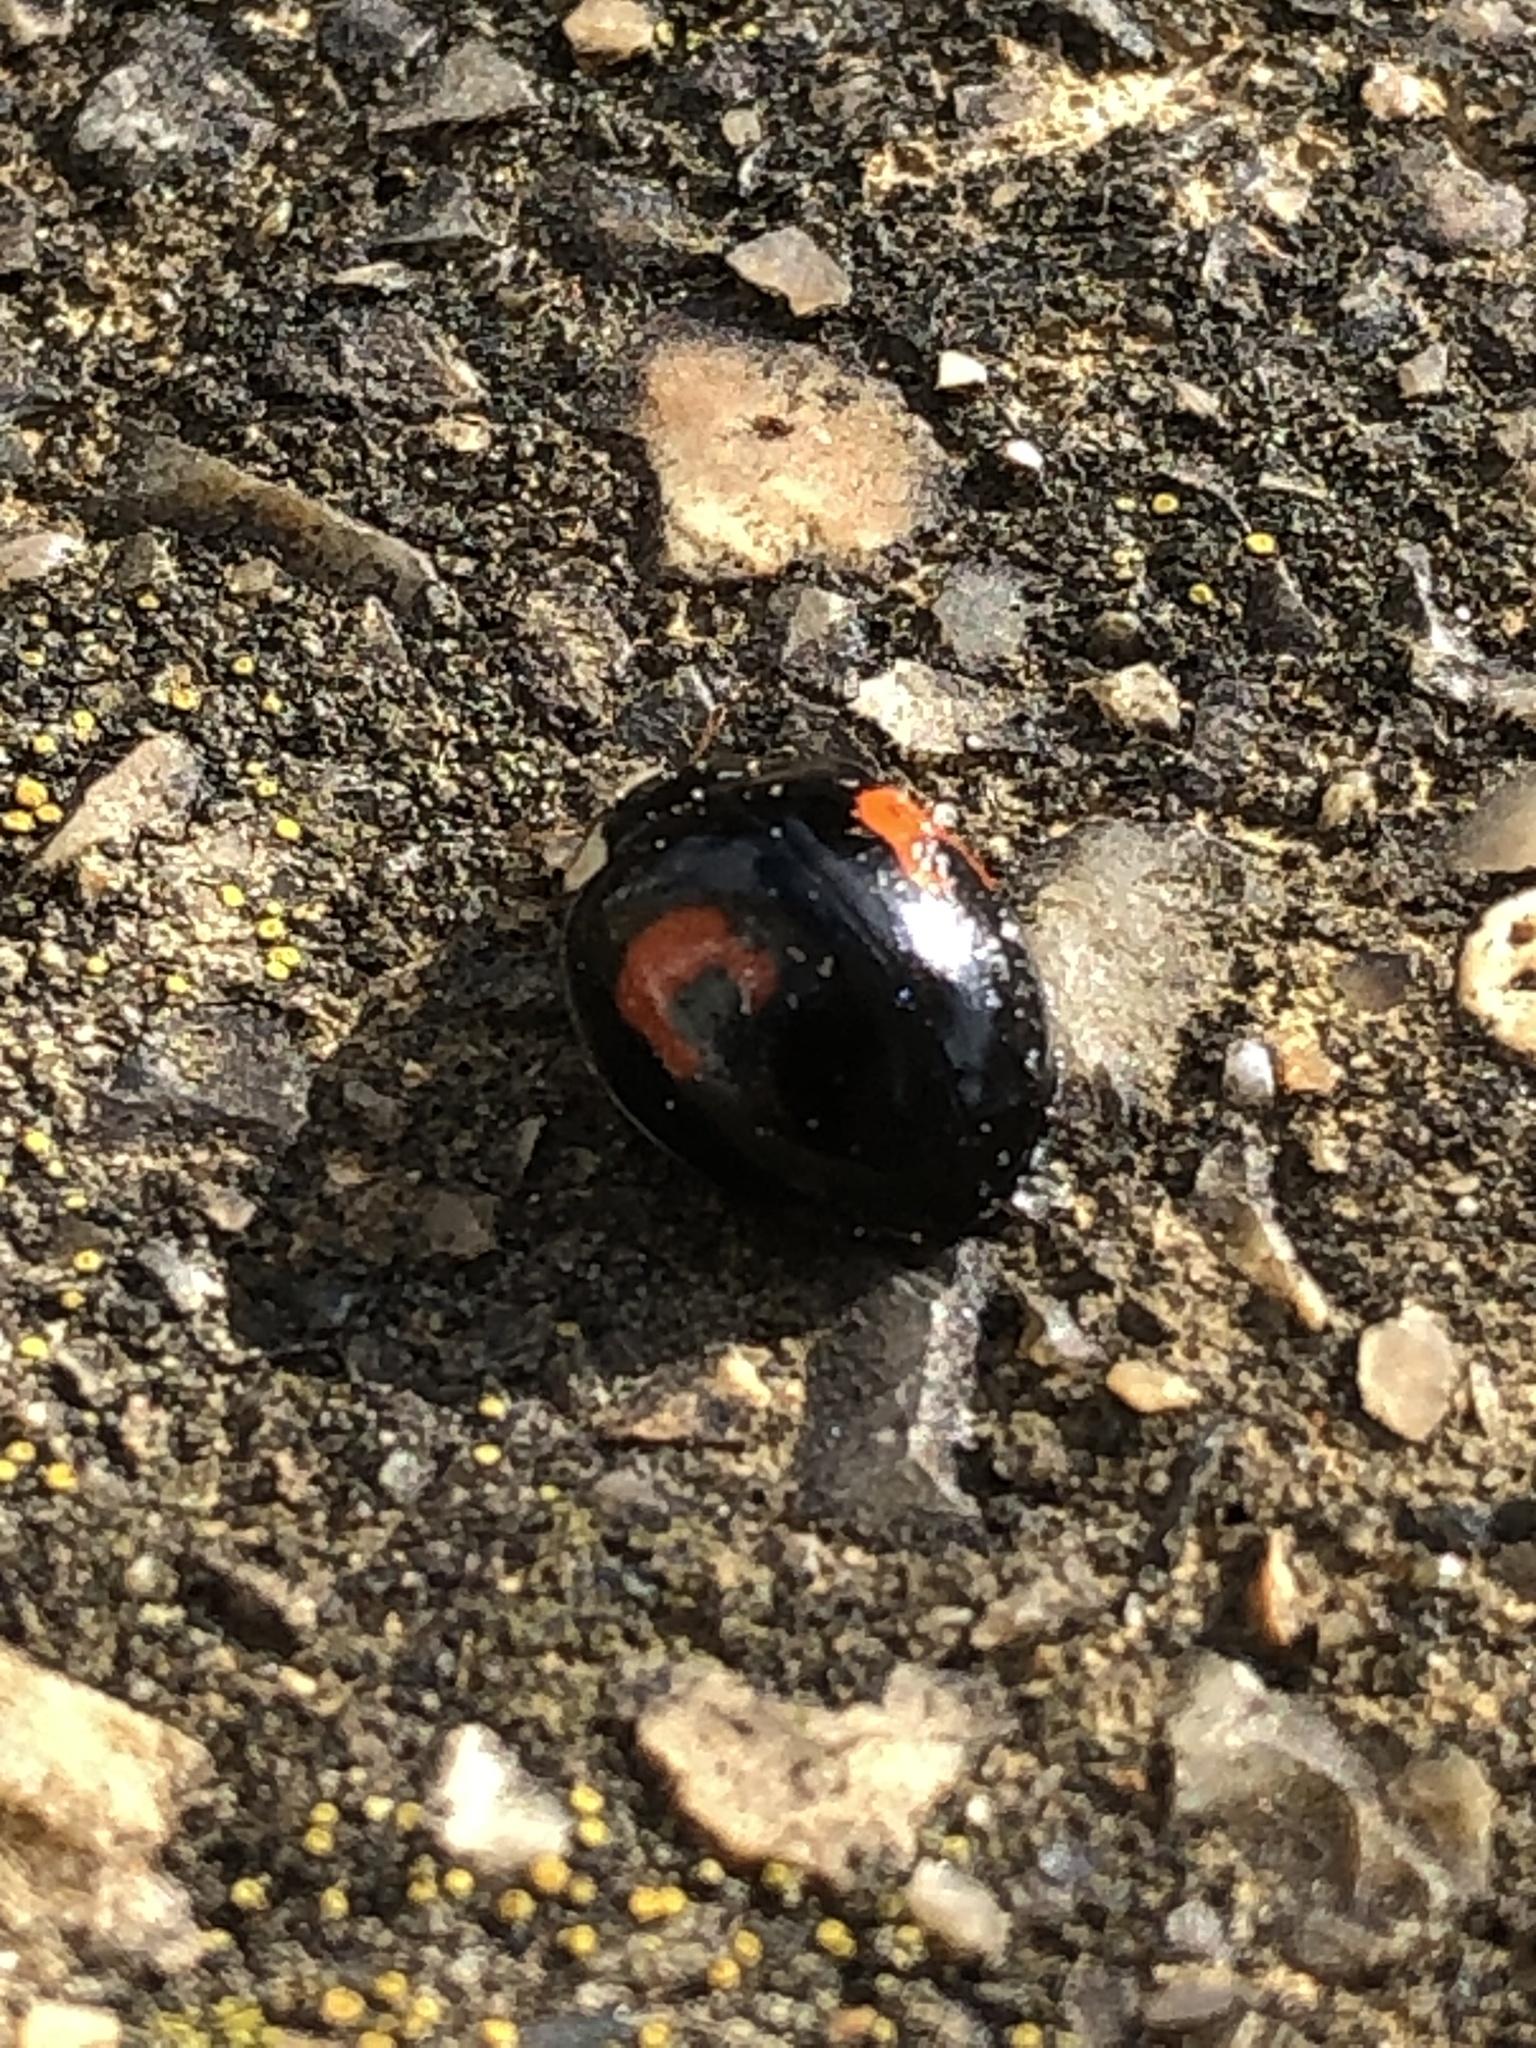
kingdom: Animalia
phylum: Arthropoda
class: Insecta
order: Coleoptera
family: Coccinellidae
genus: Harmonia
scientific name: Harmonia axyridis
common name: Harlequin ladybird
